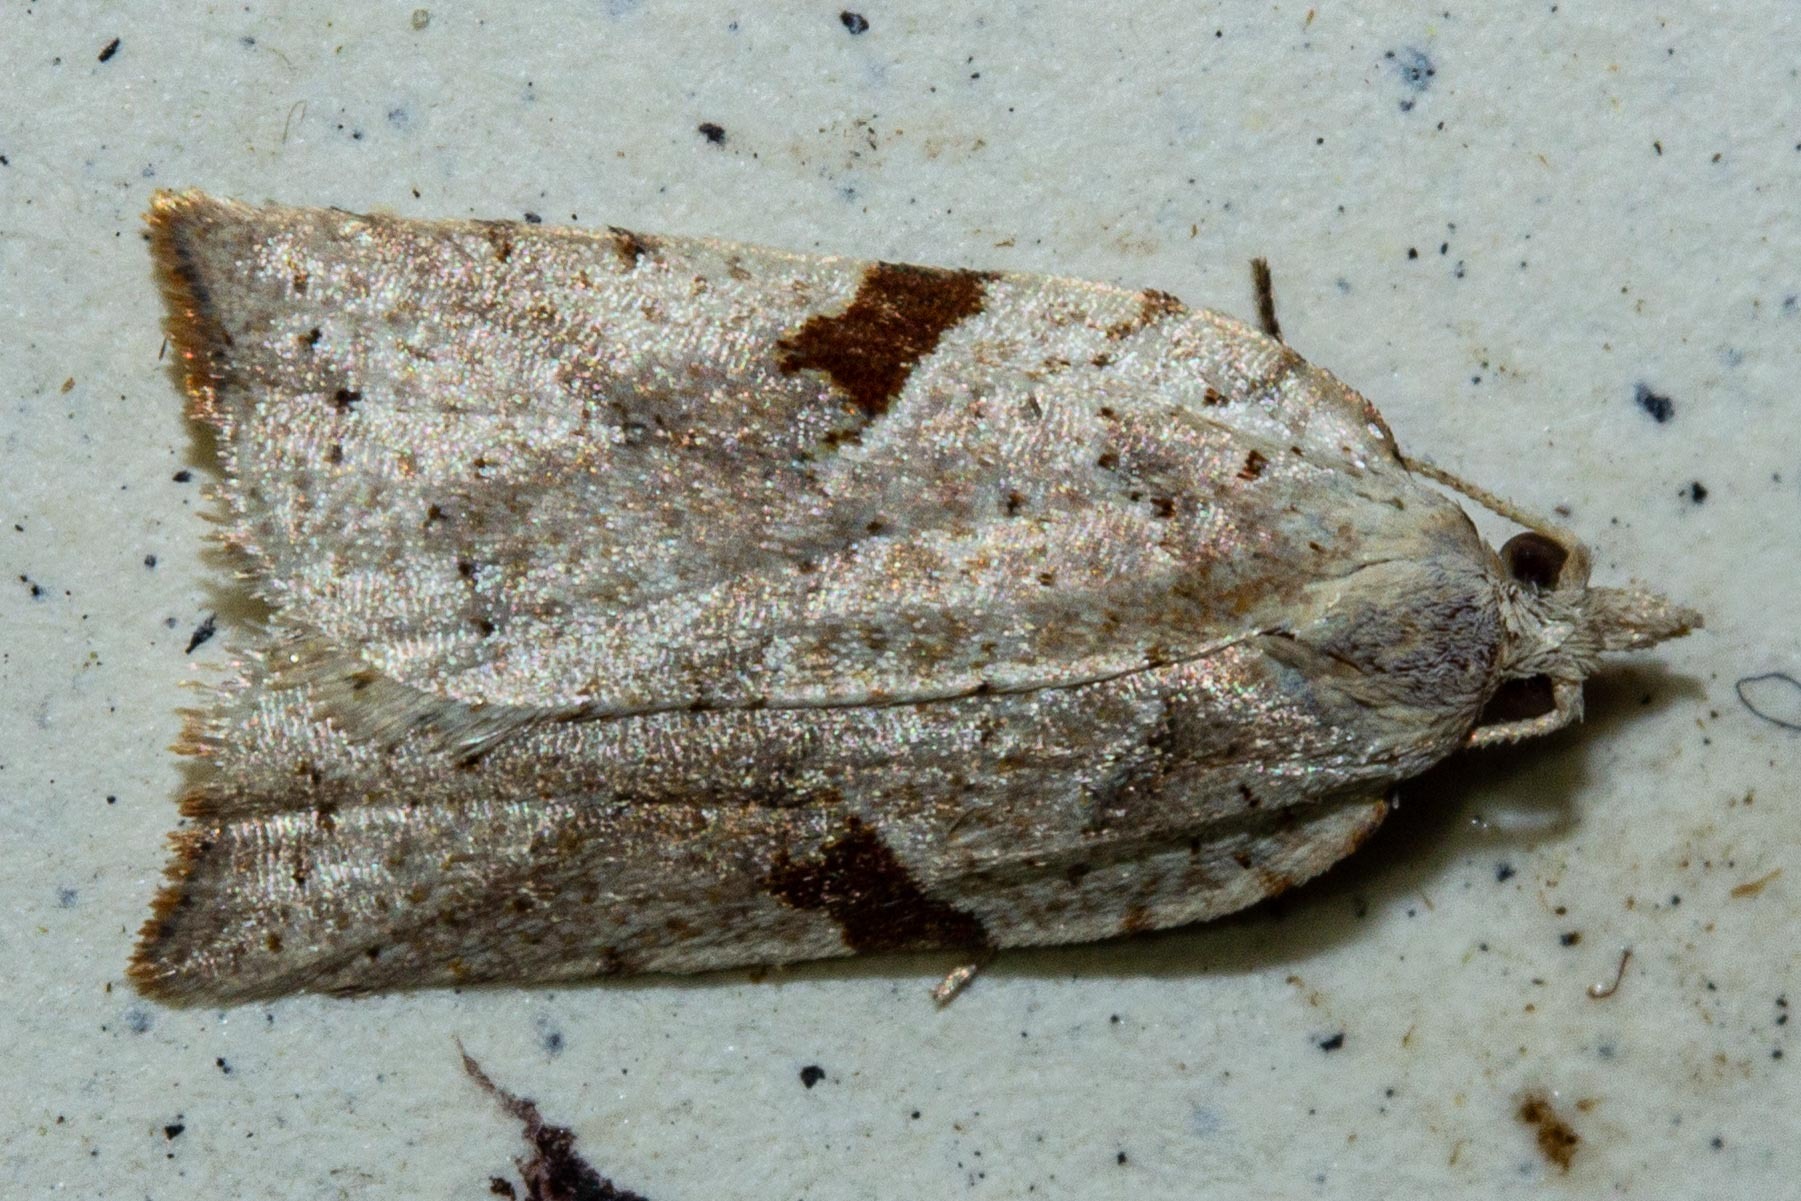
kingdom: Animalia
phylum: Arthropoda
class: Insecta
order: Lepidoptera
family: Tortricidae
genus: Leucotenes
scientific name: Leucotenes coprosmae
